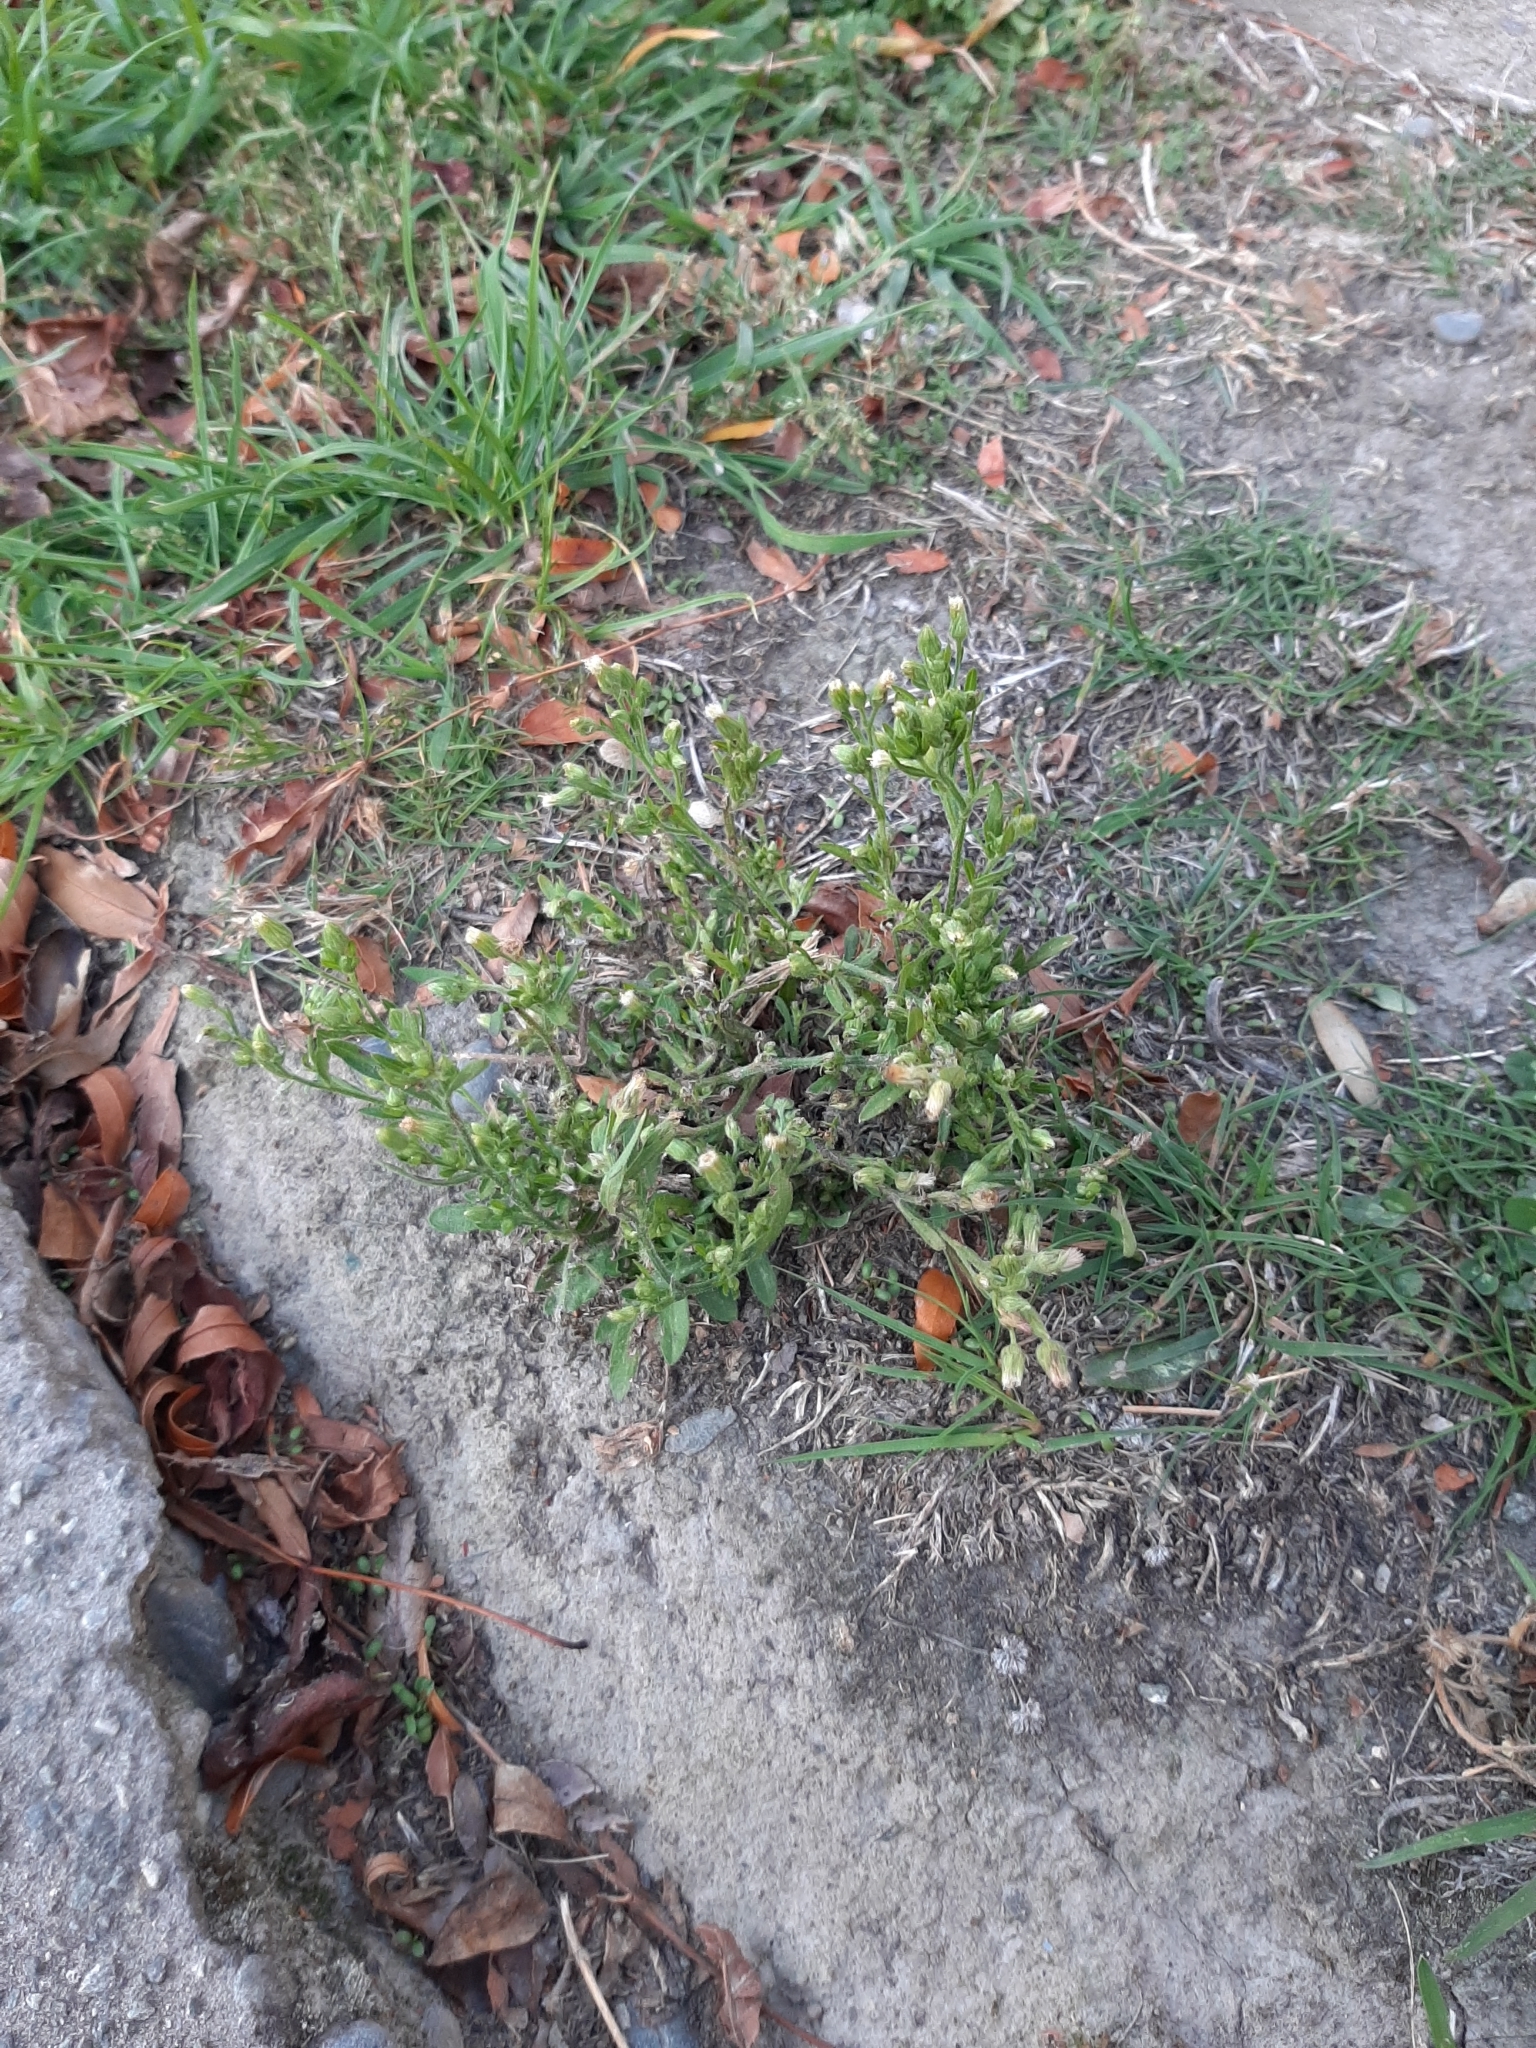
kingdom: Plantae
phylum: Tracheophyta
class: Magnoliopsida
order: Asterales
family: Asteraceae
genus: Erigeron
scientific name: Erigeron sumatrensis
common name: Daisy
